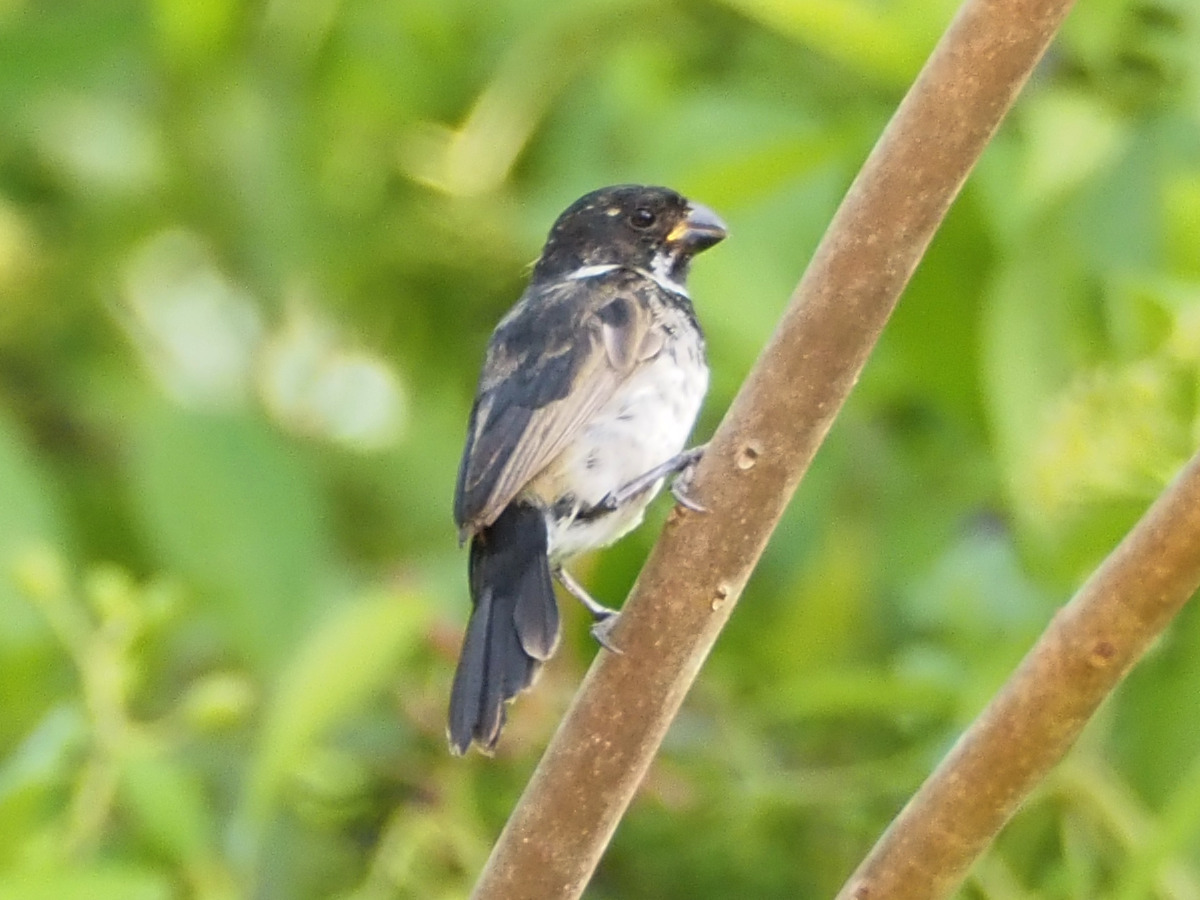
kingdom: Animalia
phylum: Chordata
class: Aves
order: Passeriformes
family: Thraupidae
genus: Sporophila
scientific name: Sporophila corvina
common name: Variable seedeater
